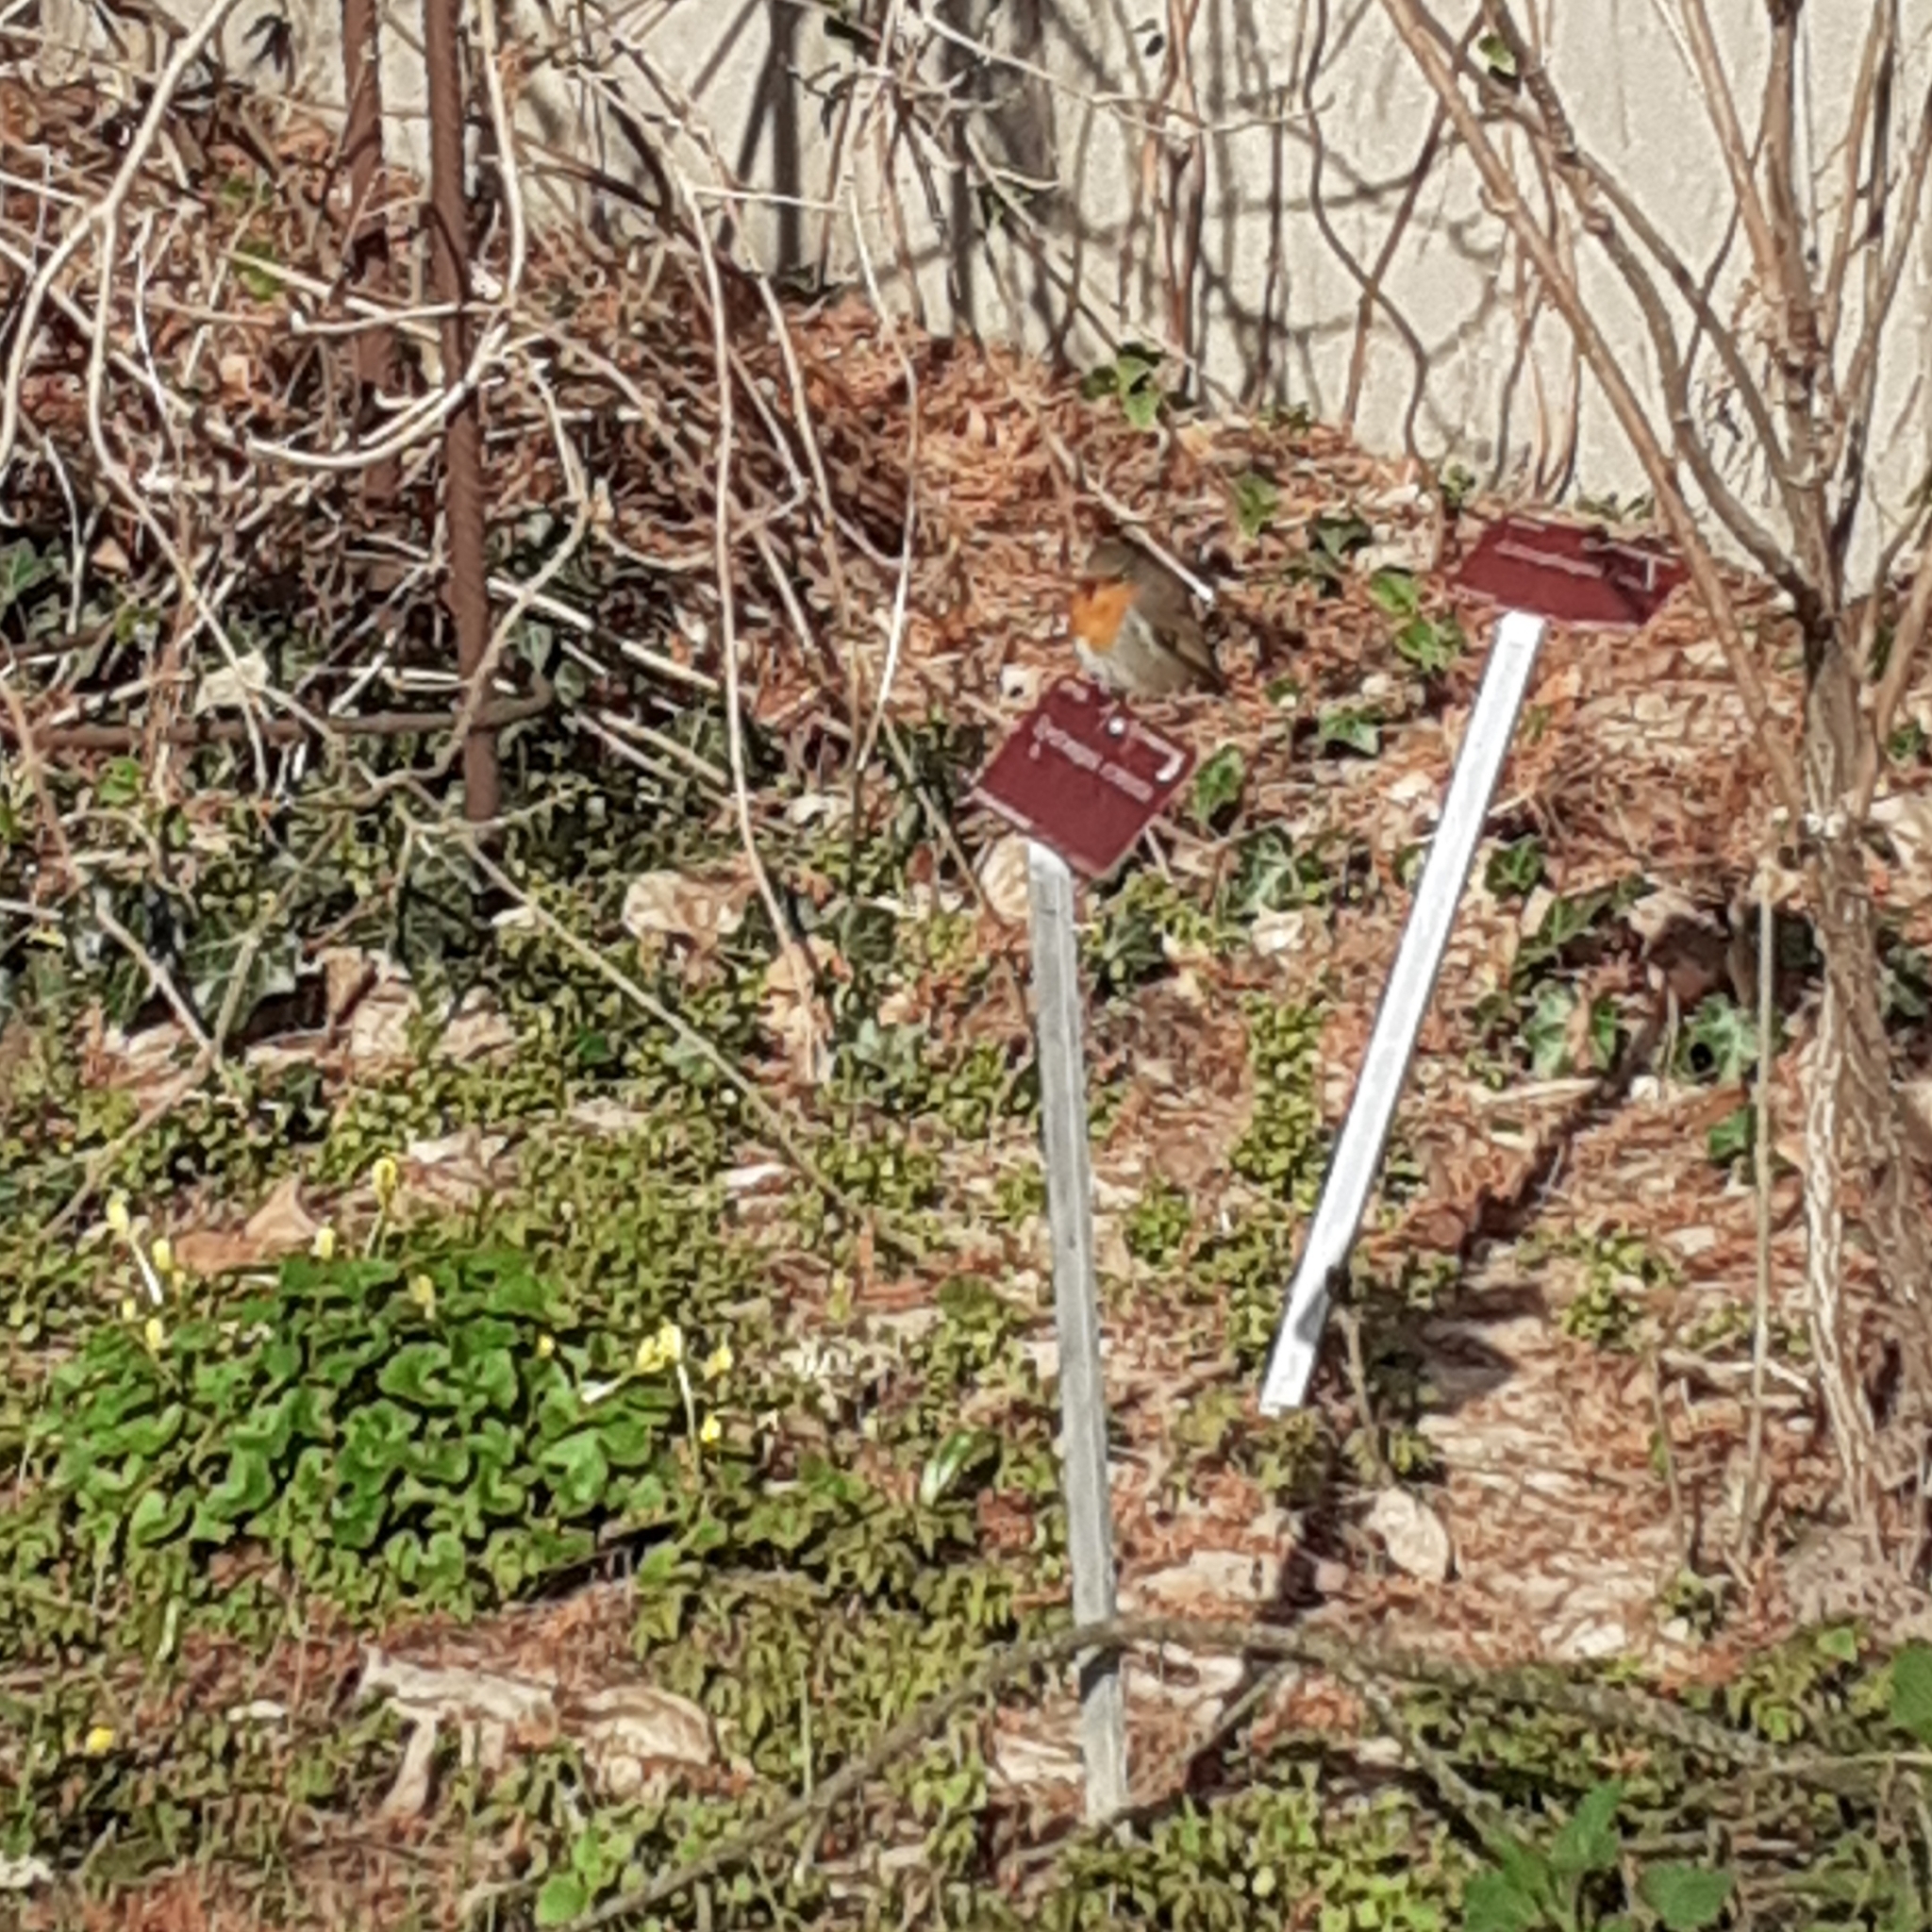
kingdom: Animalia
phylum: Chordata
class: Aves
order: Passeriformes
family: Muscicapidae
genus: Erithacus
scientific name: Erithacus rubecula
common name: European robin
